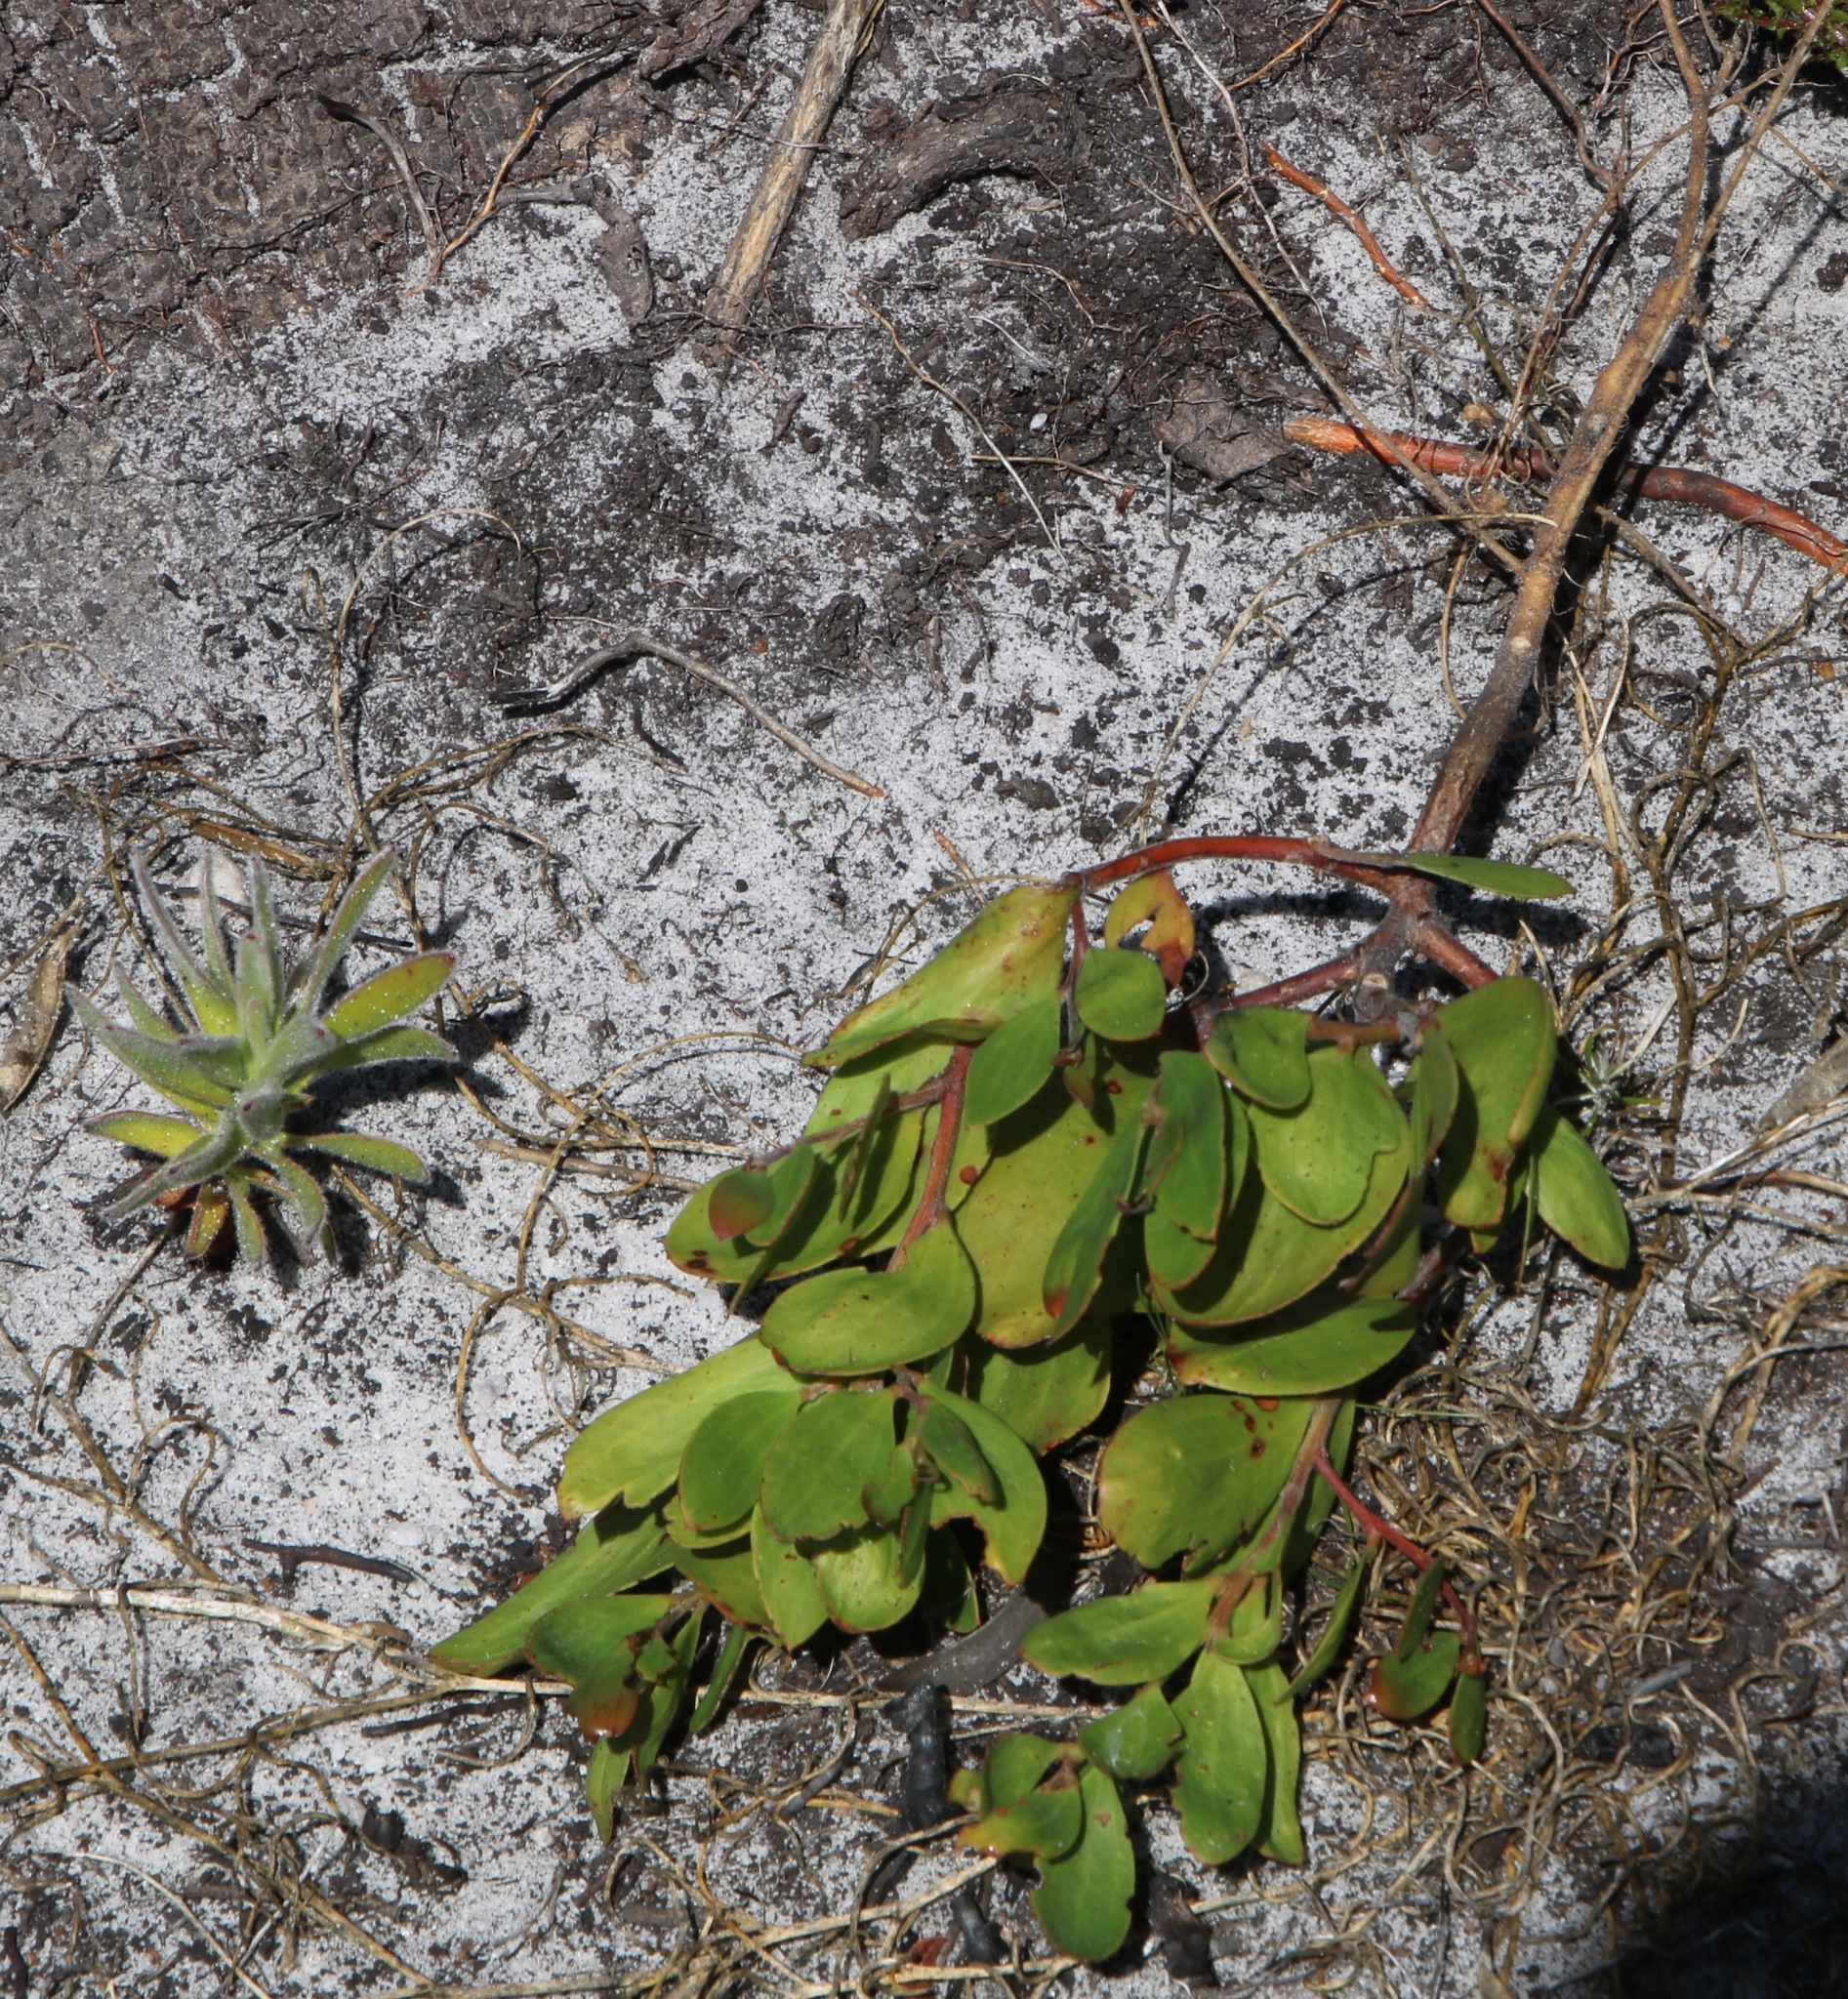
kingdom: Plantae
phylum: Tracheophyta
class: Magnoliopsida
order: Fabales
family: Fabaceae
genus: Acacia
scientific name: Acacia cyclops
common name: Coastal wattle
